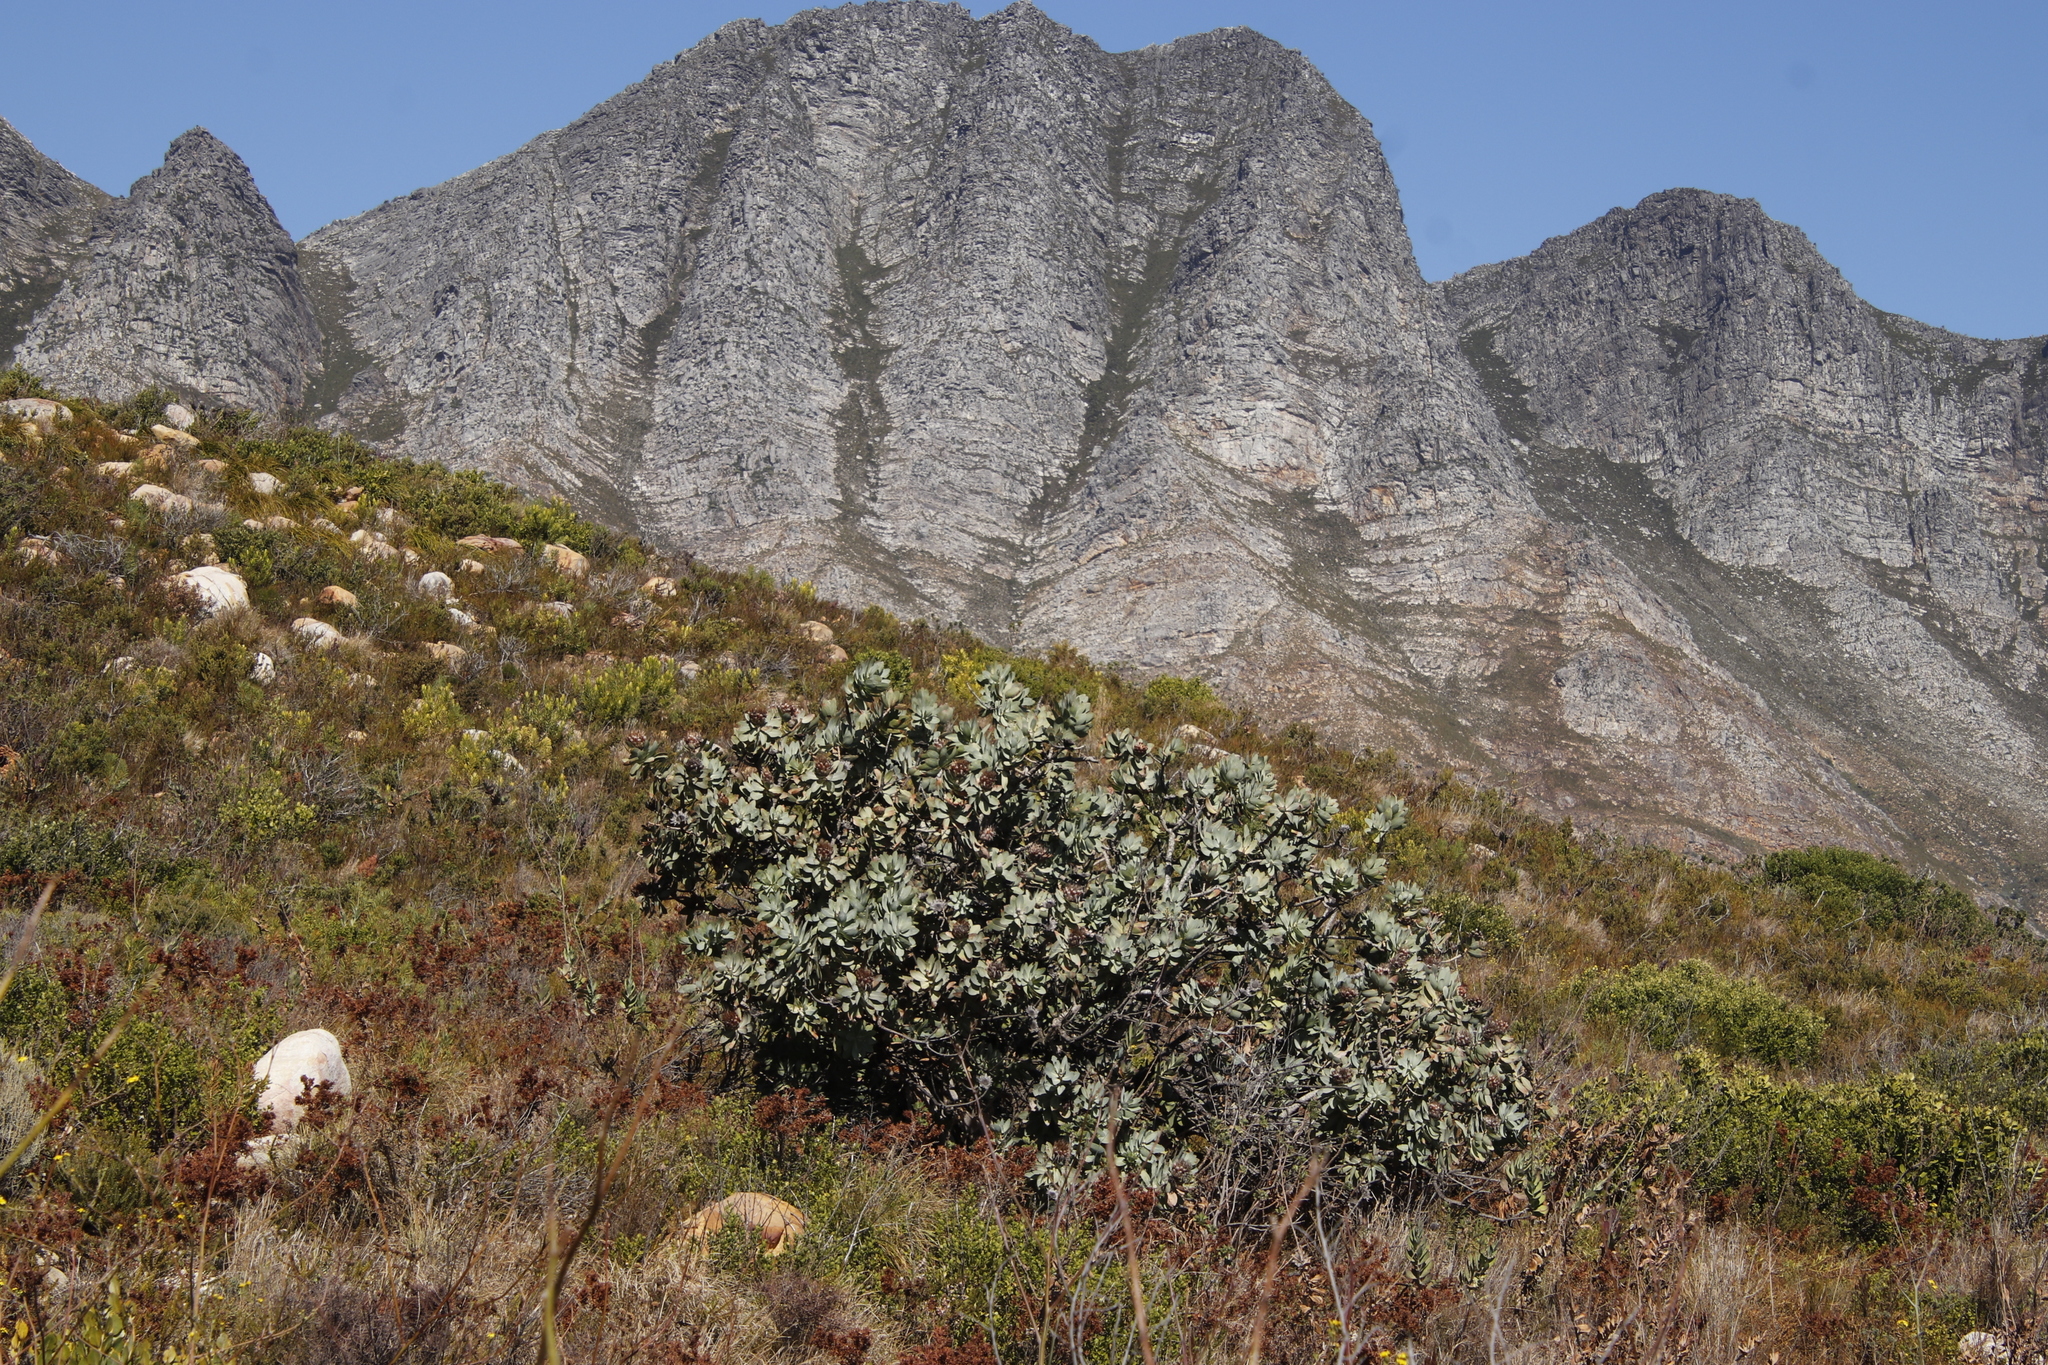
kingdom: Plantae
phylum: Tracheophyta
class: Magnoliopsida
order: Proteales
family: Proteaceae
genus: Protea
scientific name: Protea nitida
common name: Tree protea
